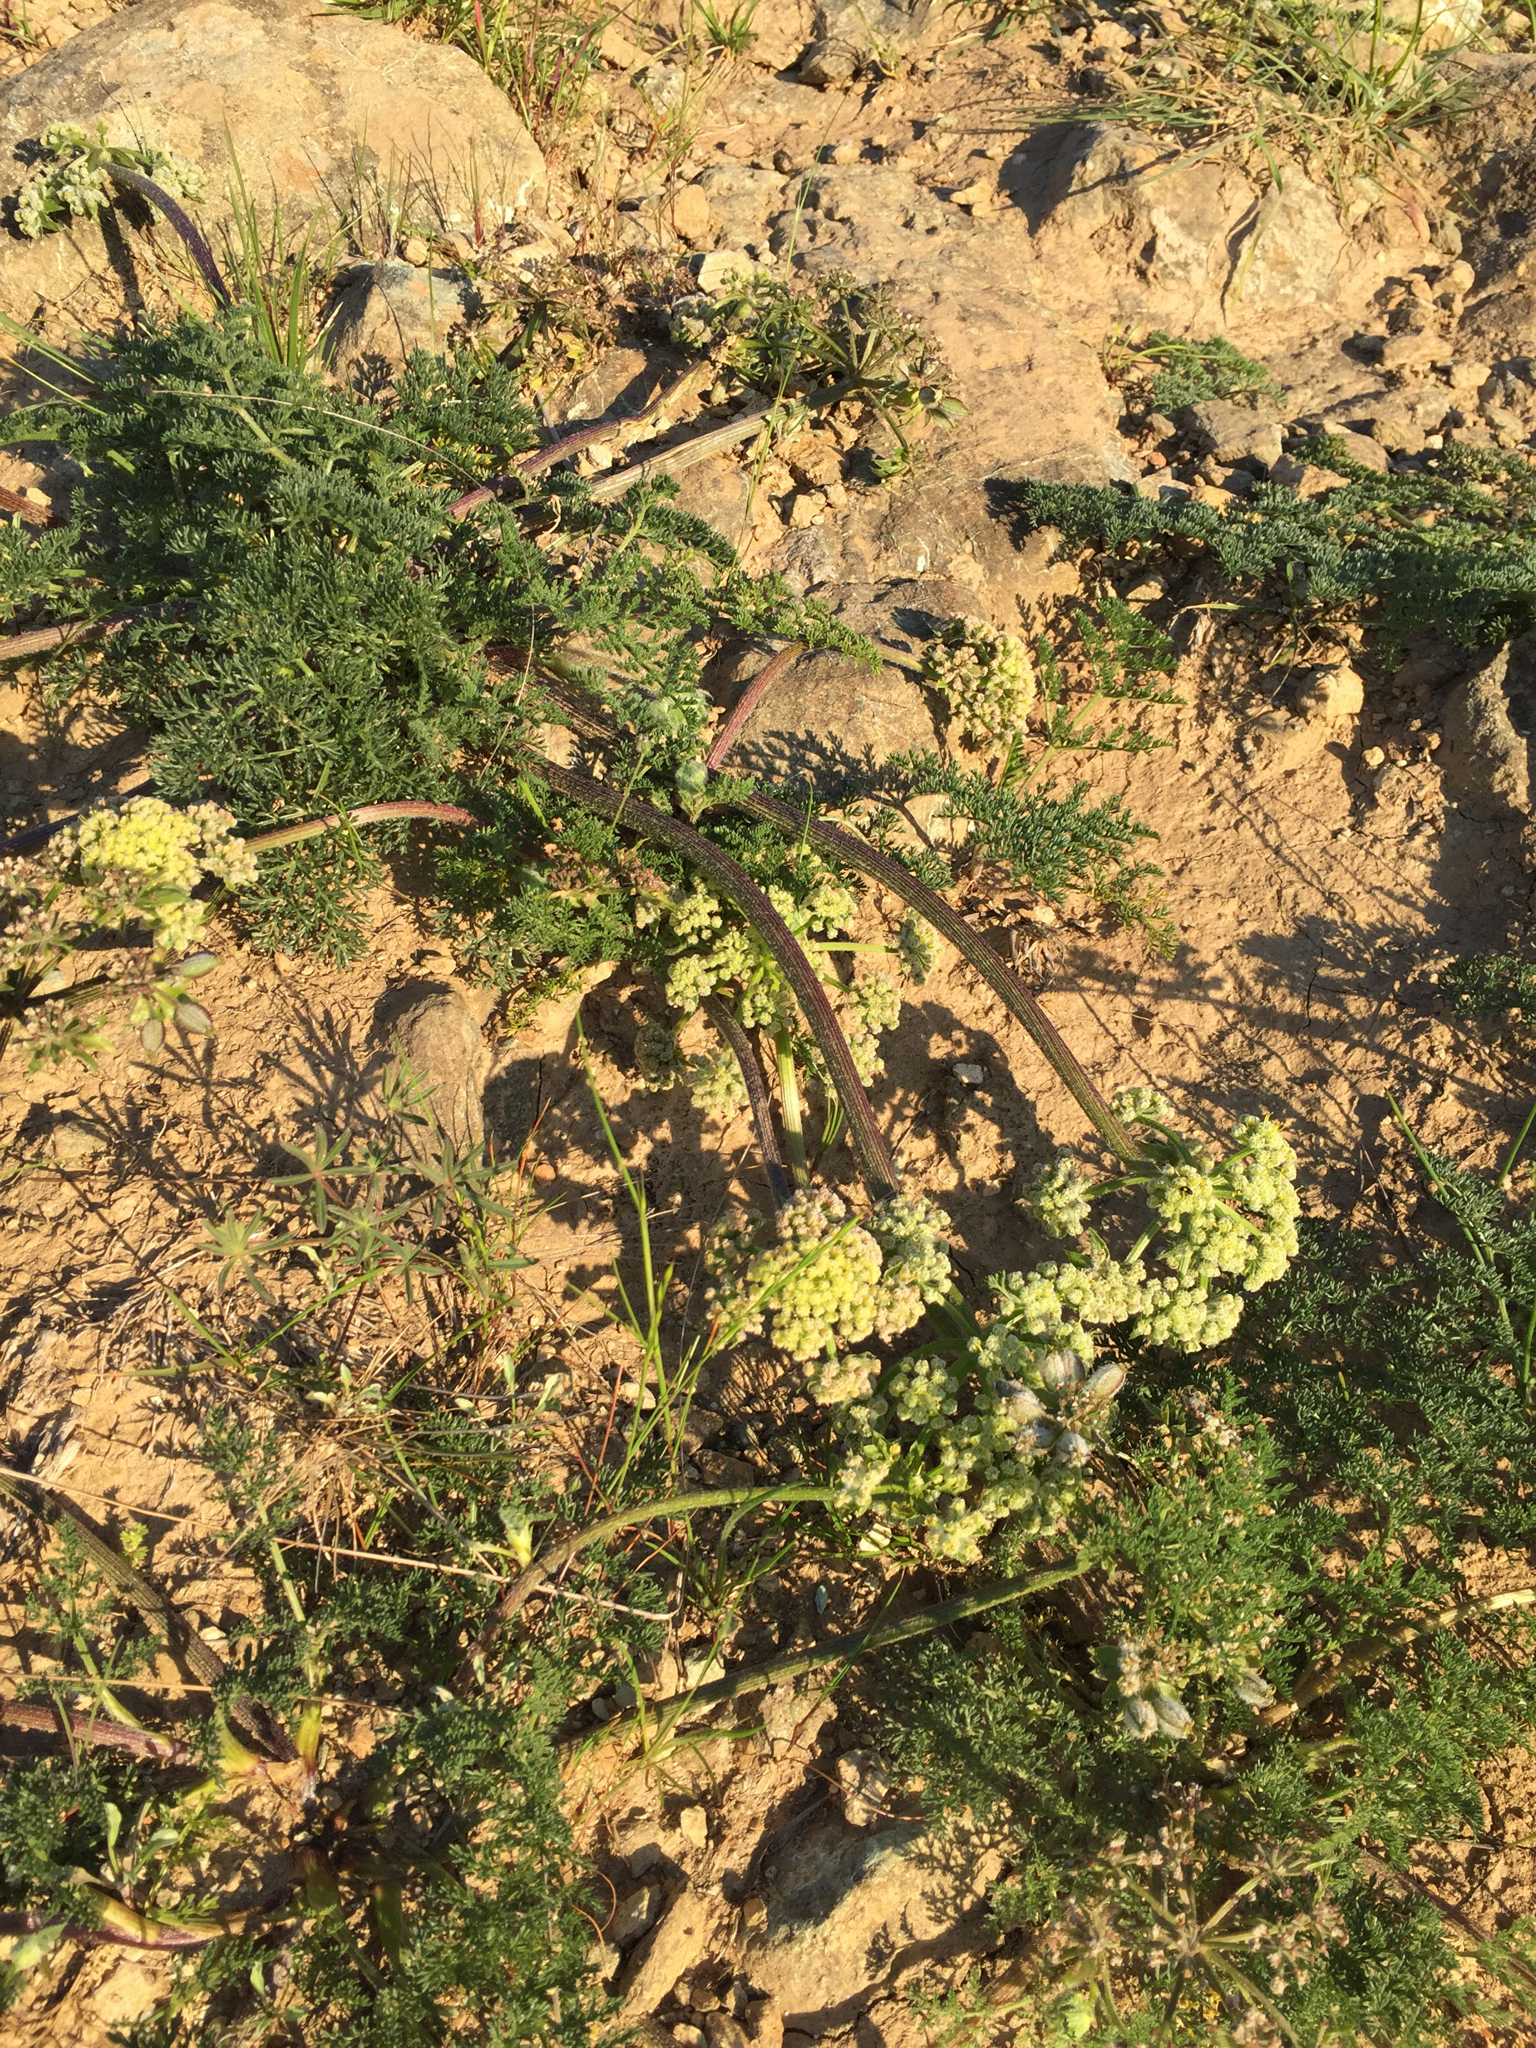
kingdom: Plantae
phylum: Tracheophyta
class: Magnoliopsida
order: Apiales
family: Apiaceae
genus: Lomatium
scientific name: Lomatium dasycarpum
